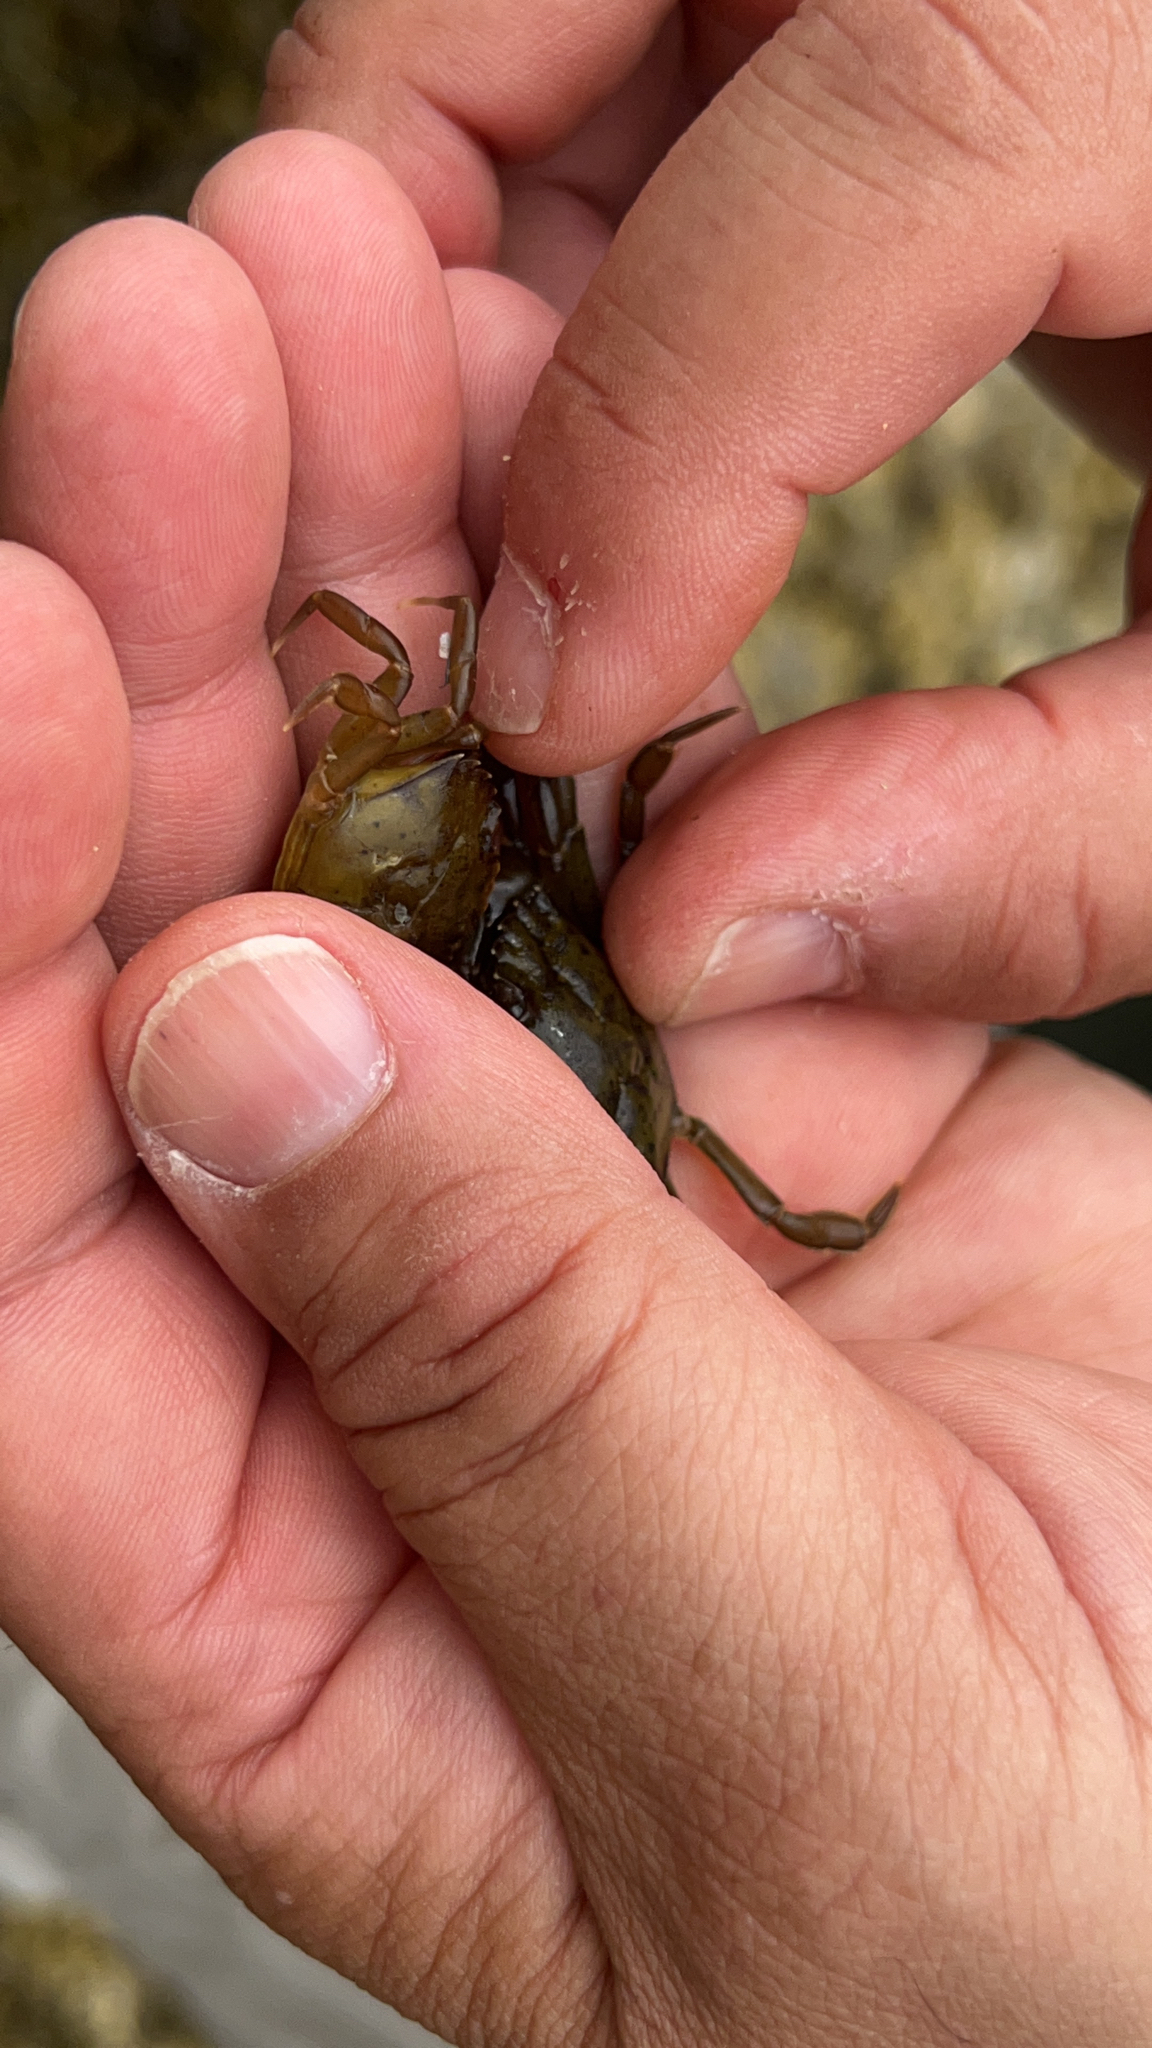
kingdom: Animalia
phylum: Arthropoda
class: Malacostraca
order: Decapoda
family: Carcinidae
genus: Carcinus
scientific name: Carcinus maenas
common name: European green crab
